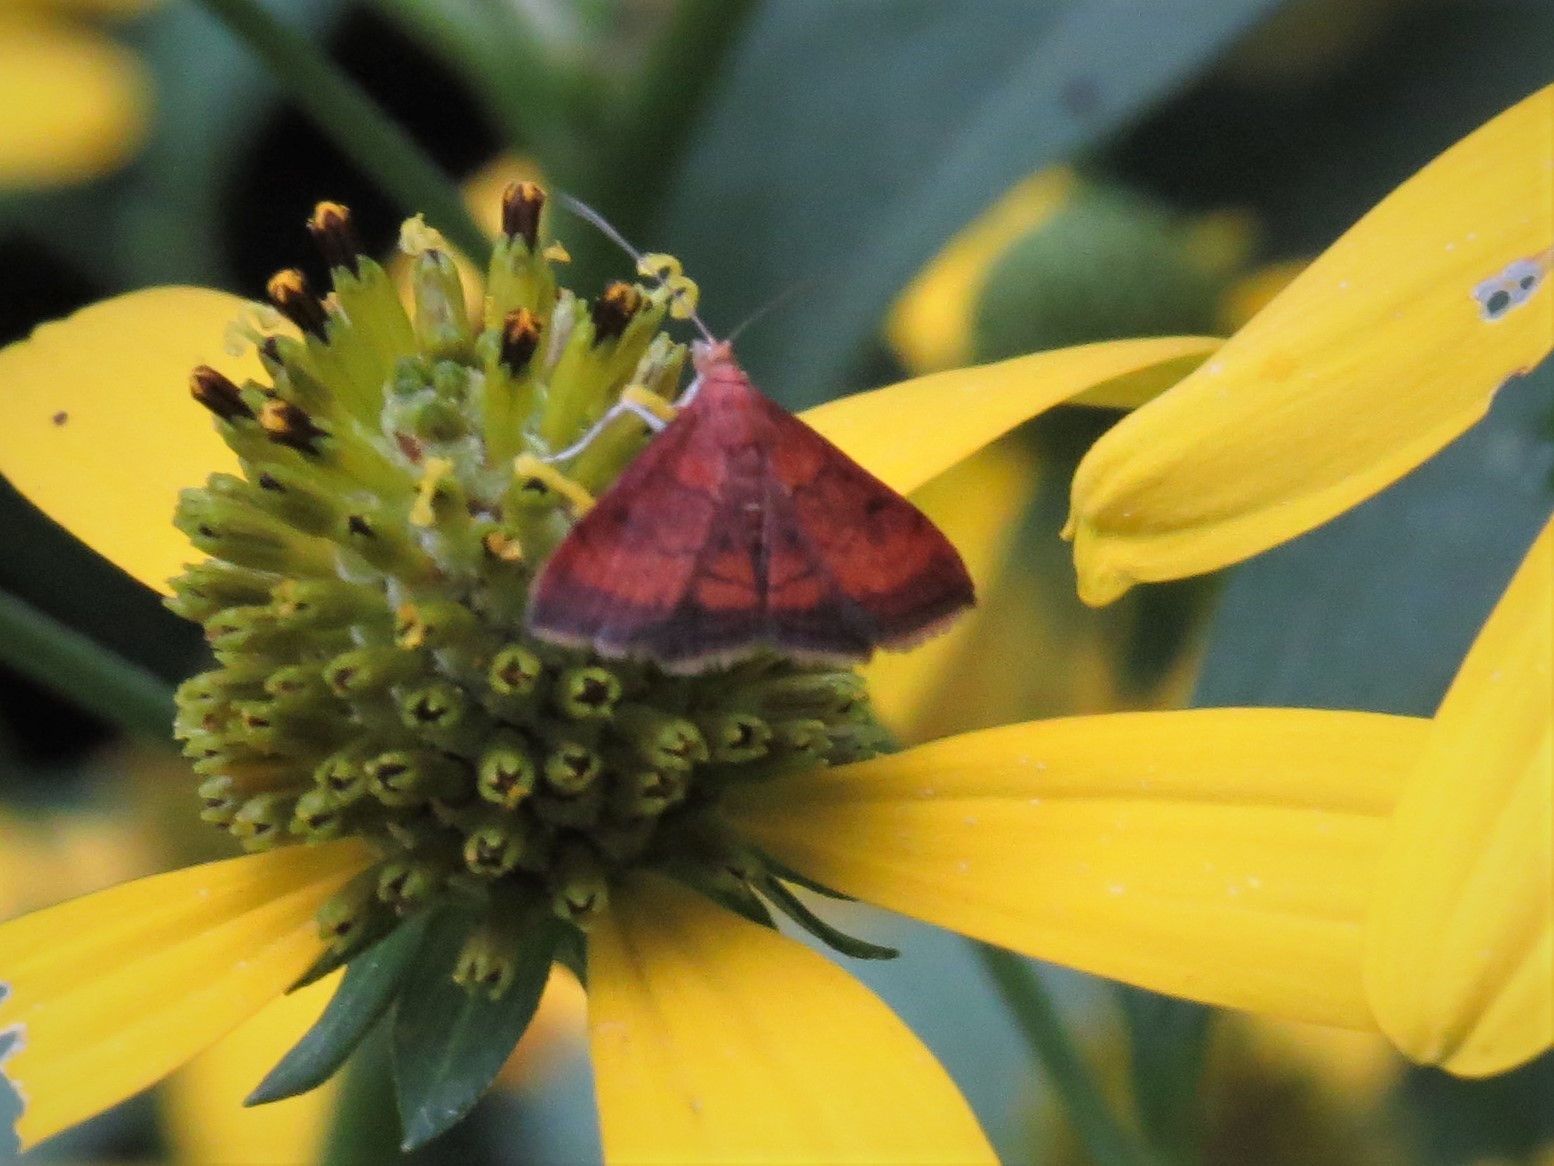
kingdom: Animalia
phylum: Arthropoda
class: Insecta
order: Lepidoptera
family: Crambidae
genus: Pyrausta
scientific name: Pyrausta rubricalis
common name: Variable reddish pyrausta
